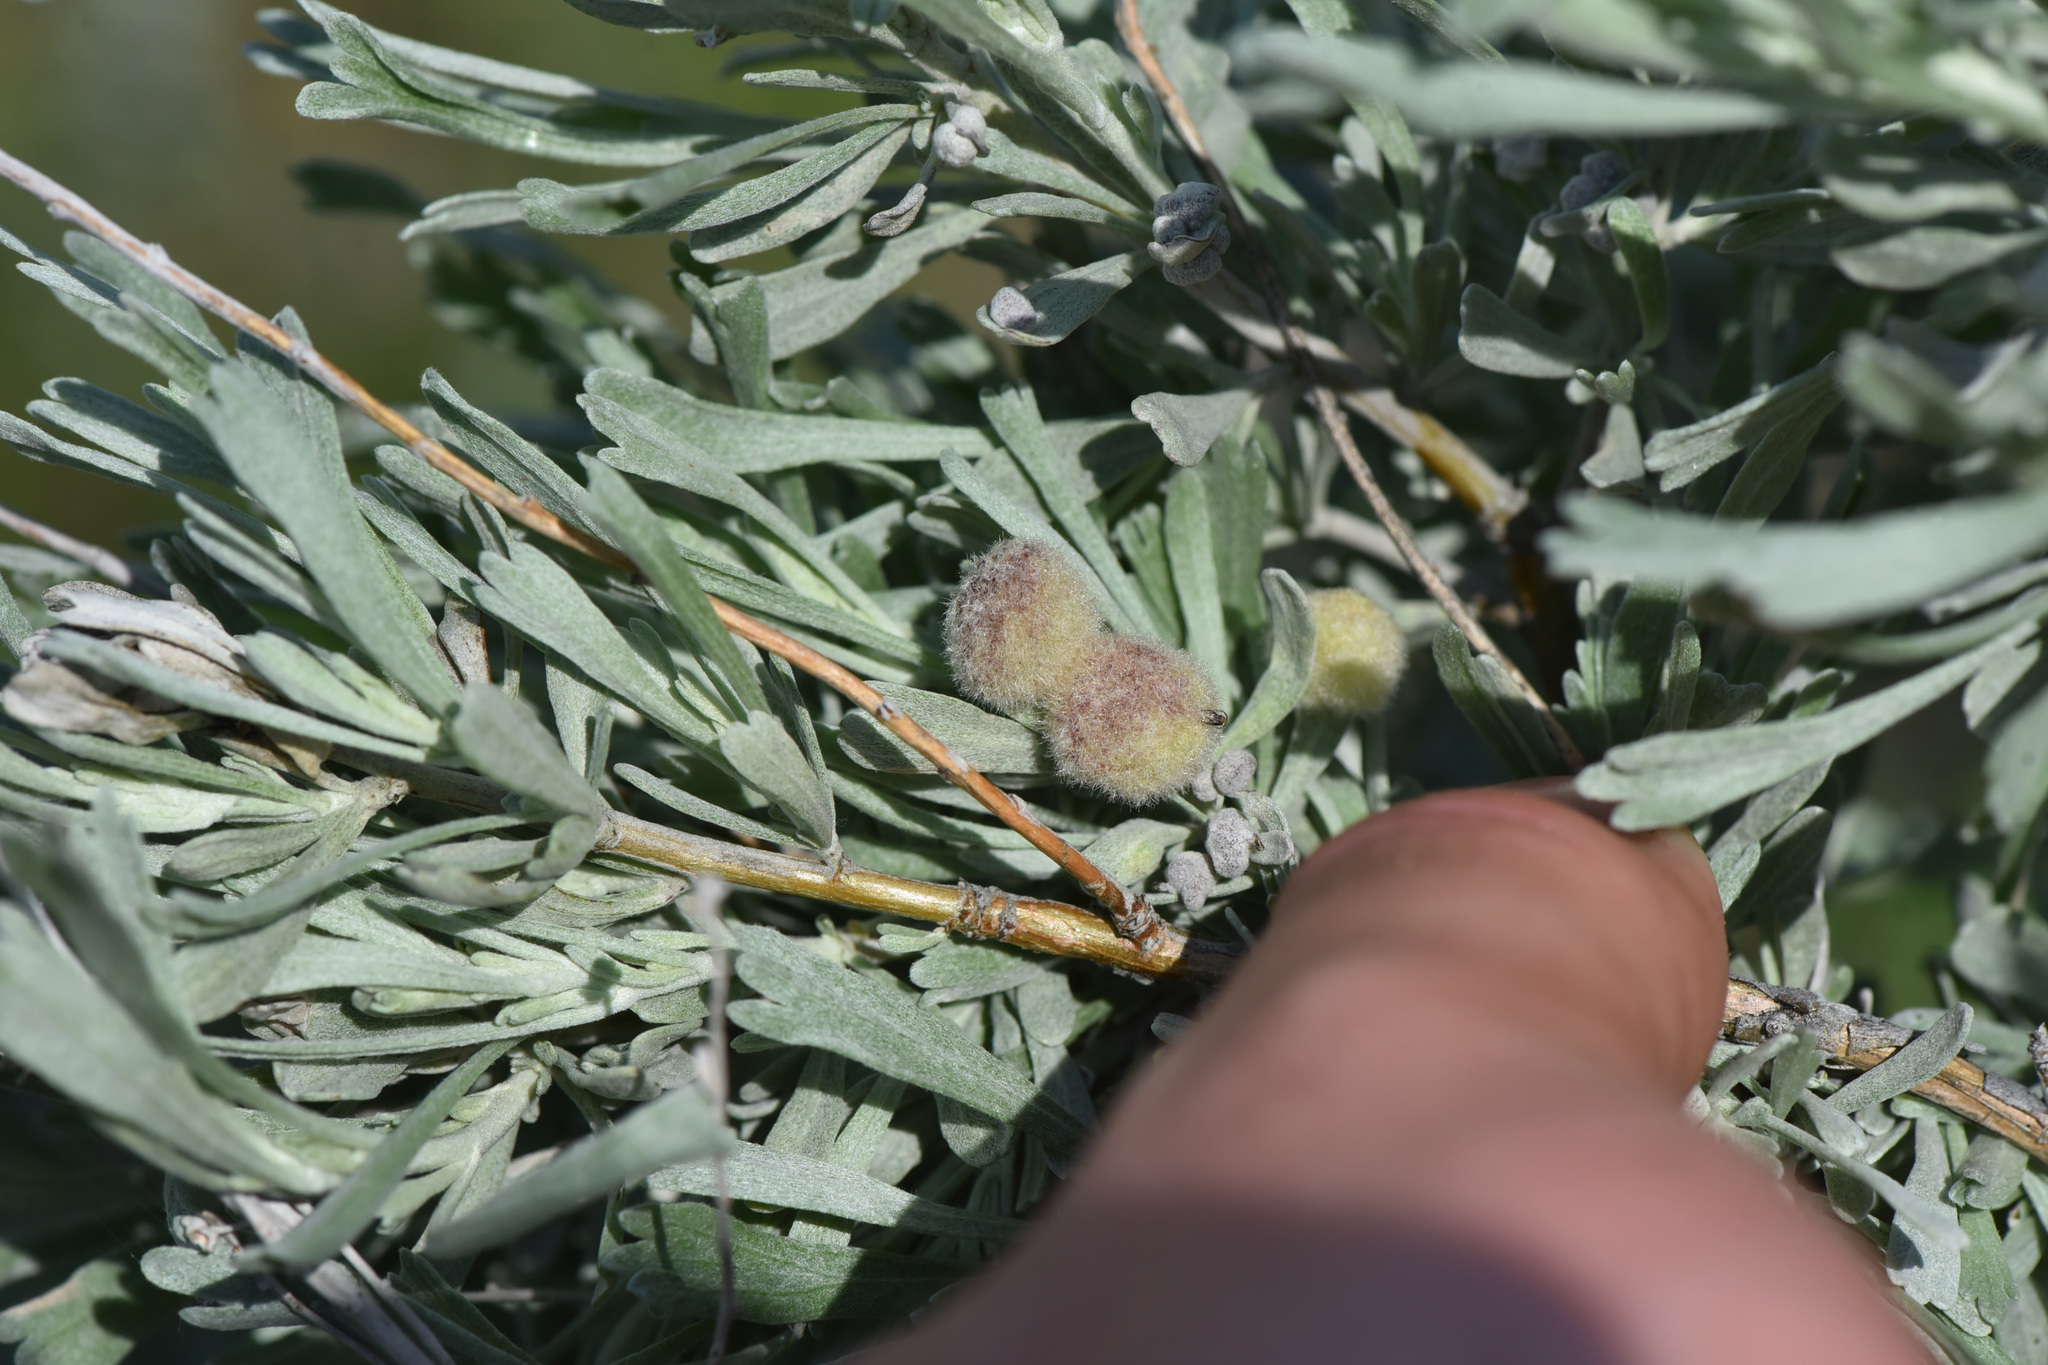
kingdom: Plantae
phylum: Tracheophyta
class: Magnoliopsida
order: Asterales
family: Asteraceae
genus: Artemisia
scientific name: Artemisia tridentata
